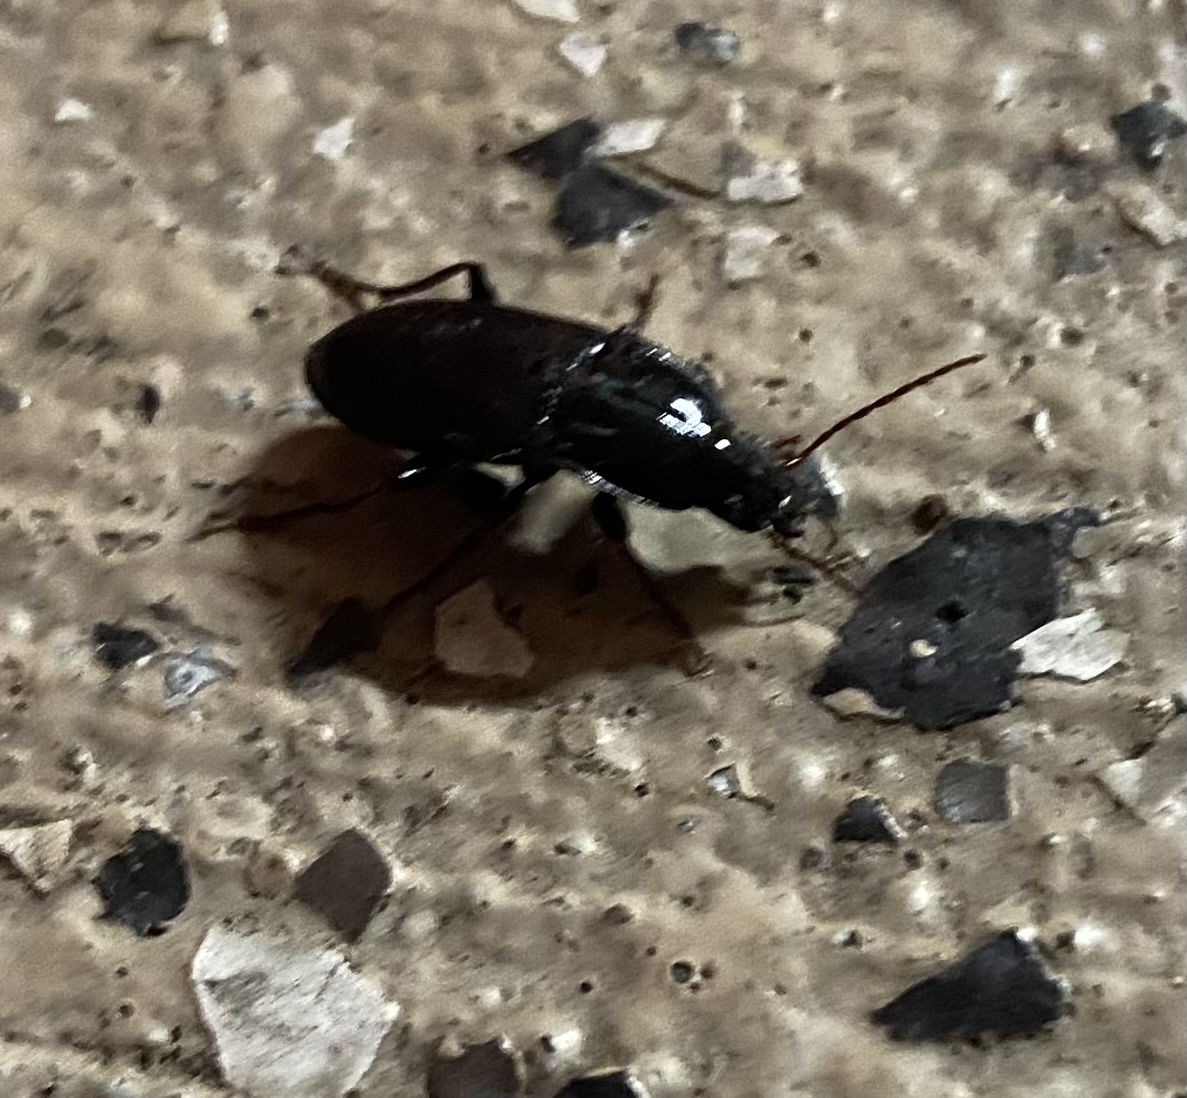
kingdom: Animalia
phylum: Arthropoda
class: Insecta
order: Coleoptera
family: Carabidae
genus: Abacidus
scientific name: Abacidus
